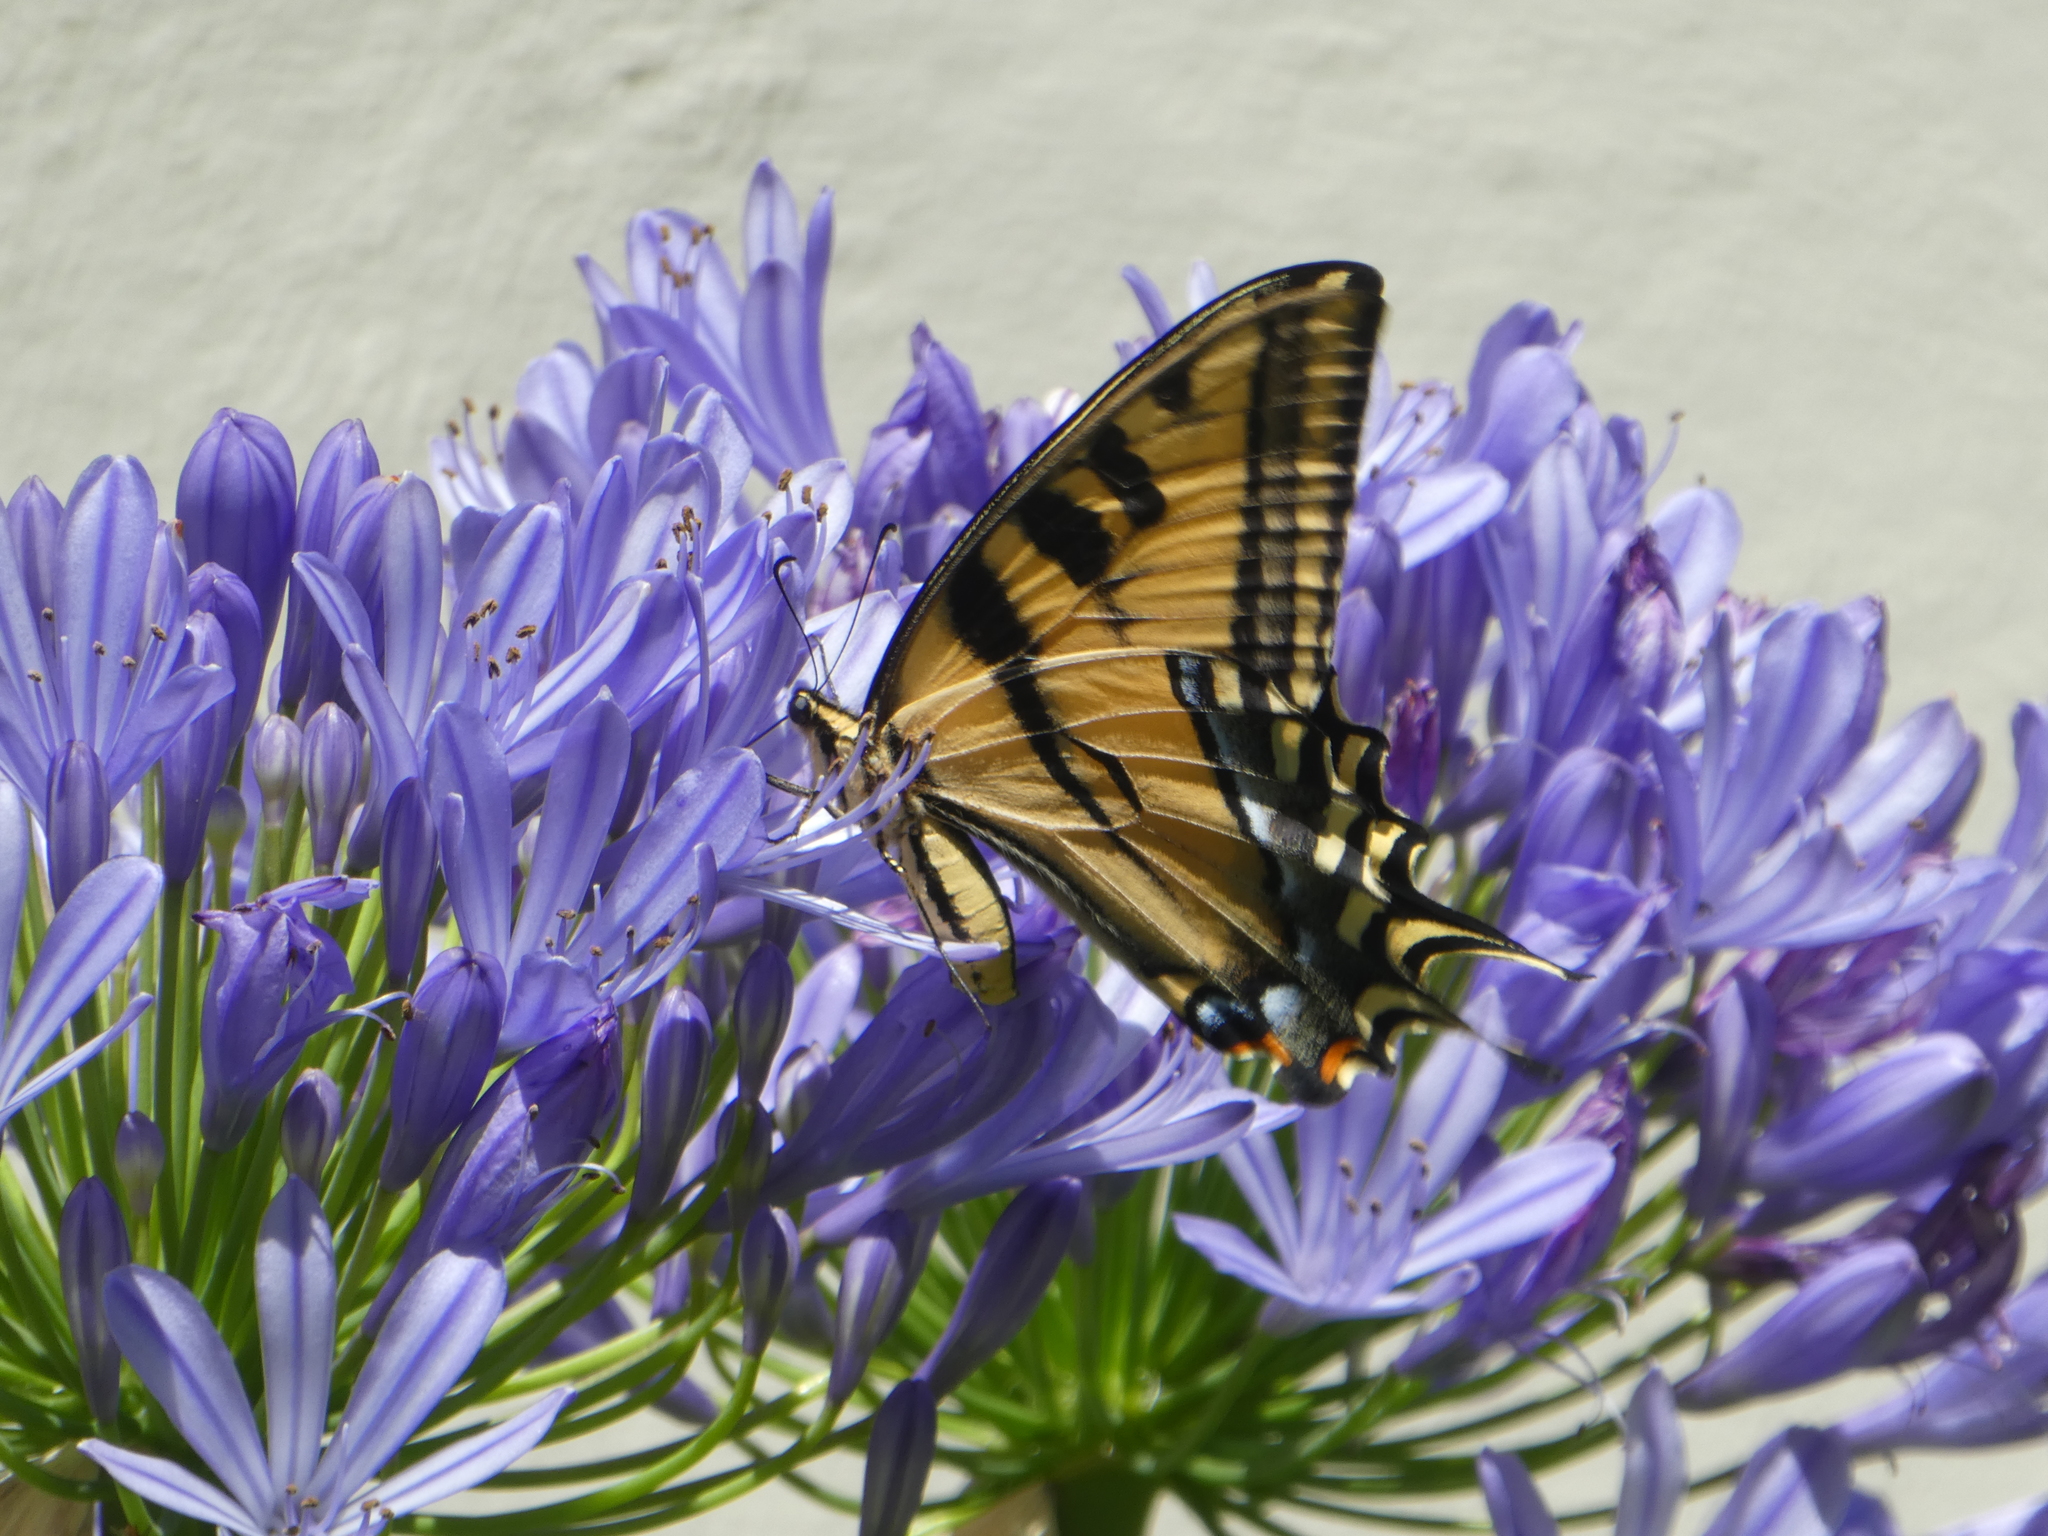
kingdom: Animalia
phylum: Arthropoda
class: Insecta
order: Lepidoptera
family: Papilionidae
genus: Papilio
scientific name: Papilio rutulus
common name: Western tiger swallowtail
